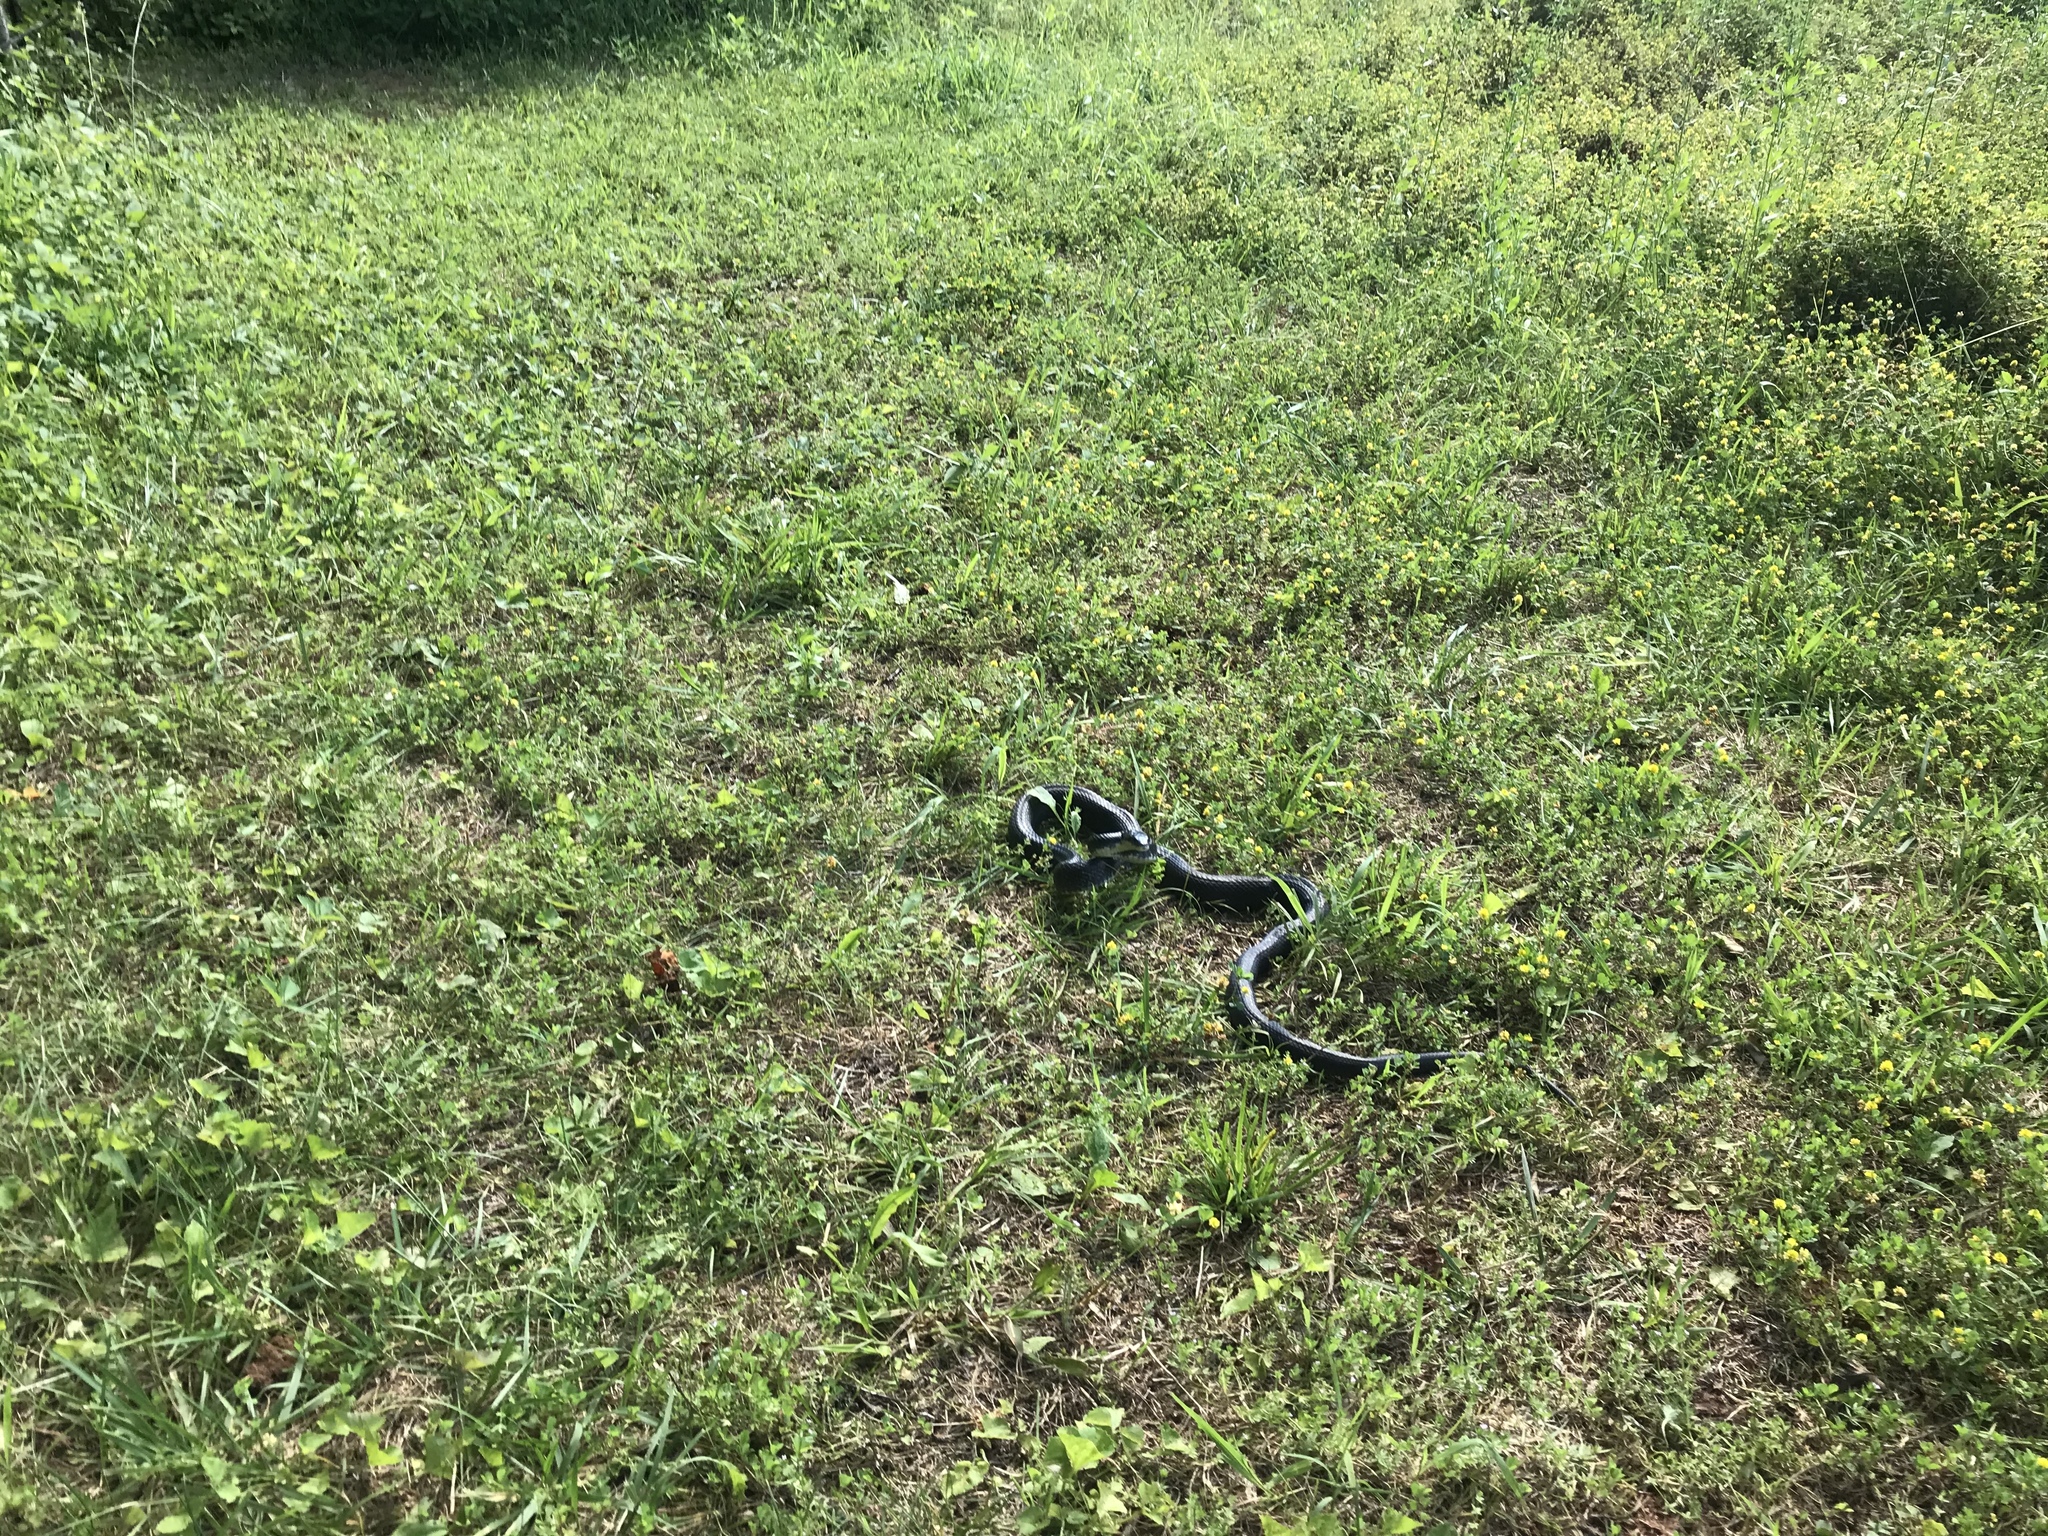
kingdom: Animalia
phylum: Chordata
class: Squamata
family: Colubridae
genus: Pantherophis
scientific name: Pantherophis alleghaniensis
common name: Eastern rat snake
